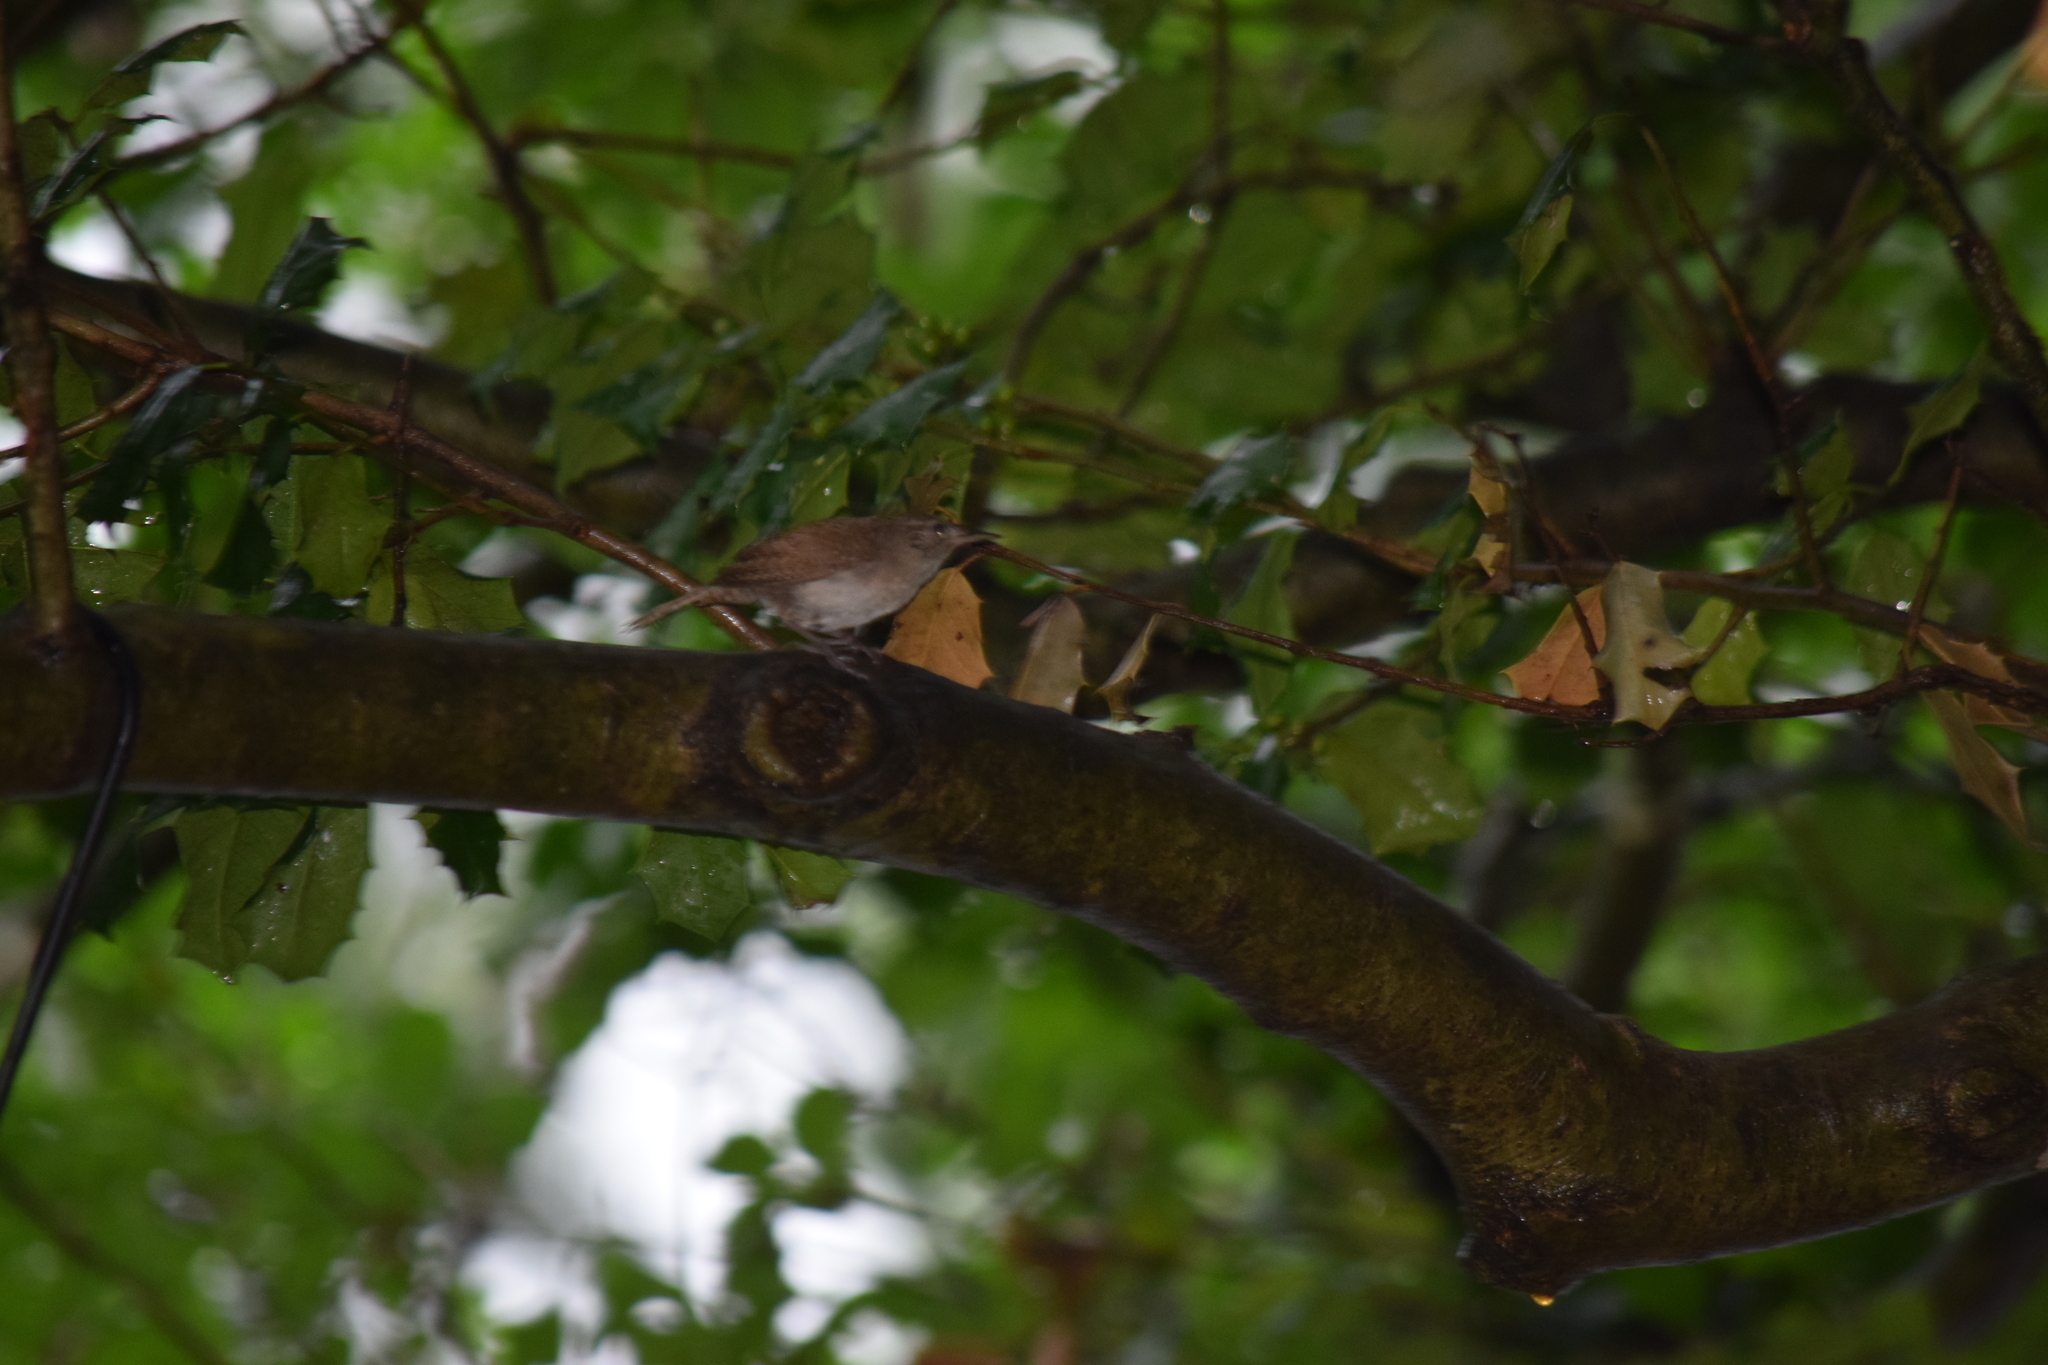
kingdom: Animalia
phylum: Chordata
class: Aves
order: Passeriformes
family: Troglodytidae
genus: Troglodytes
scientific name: Troglodytes aedon
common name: House wren
